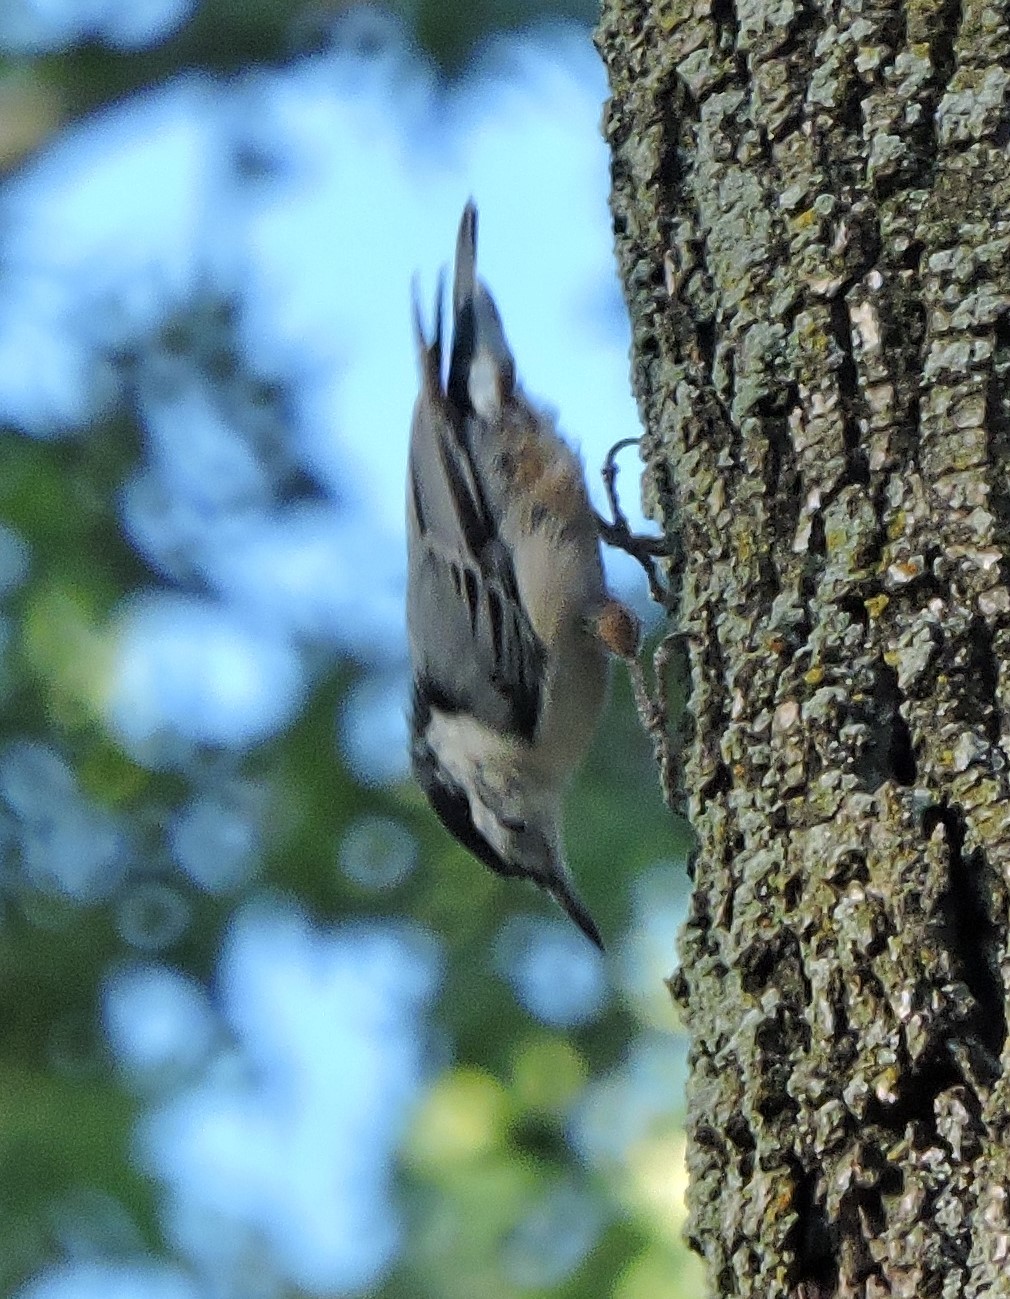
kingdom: Animalia
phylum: Chordata
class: Aves
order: Passeriformes
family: Sittidae
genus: Sitta
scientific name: Sitta carolinensis
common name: White-breasted nuthatch
